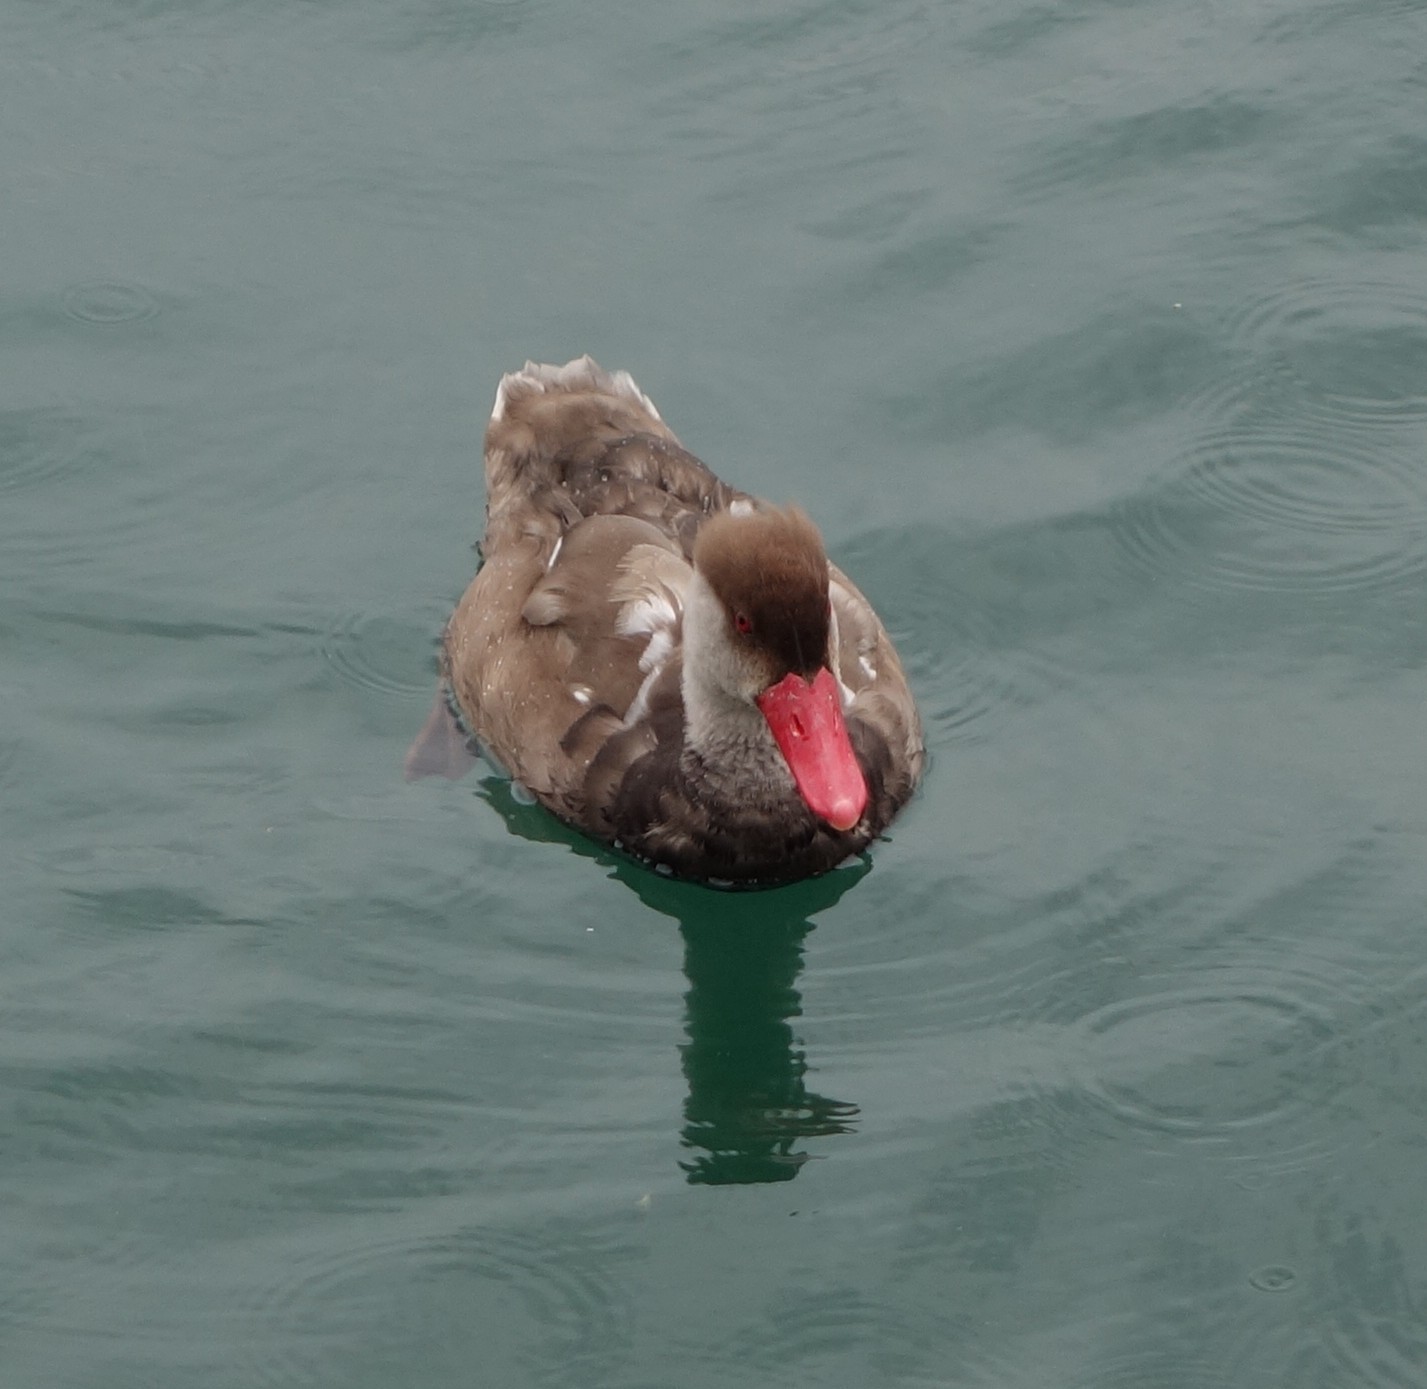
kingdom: Animalia
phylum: Chordata
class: Aves
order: Anseriformes
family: Anatidae
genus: Netta
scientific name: Netta rufina
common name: Red-crested pochard
